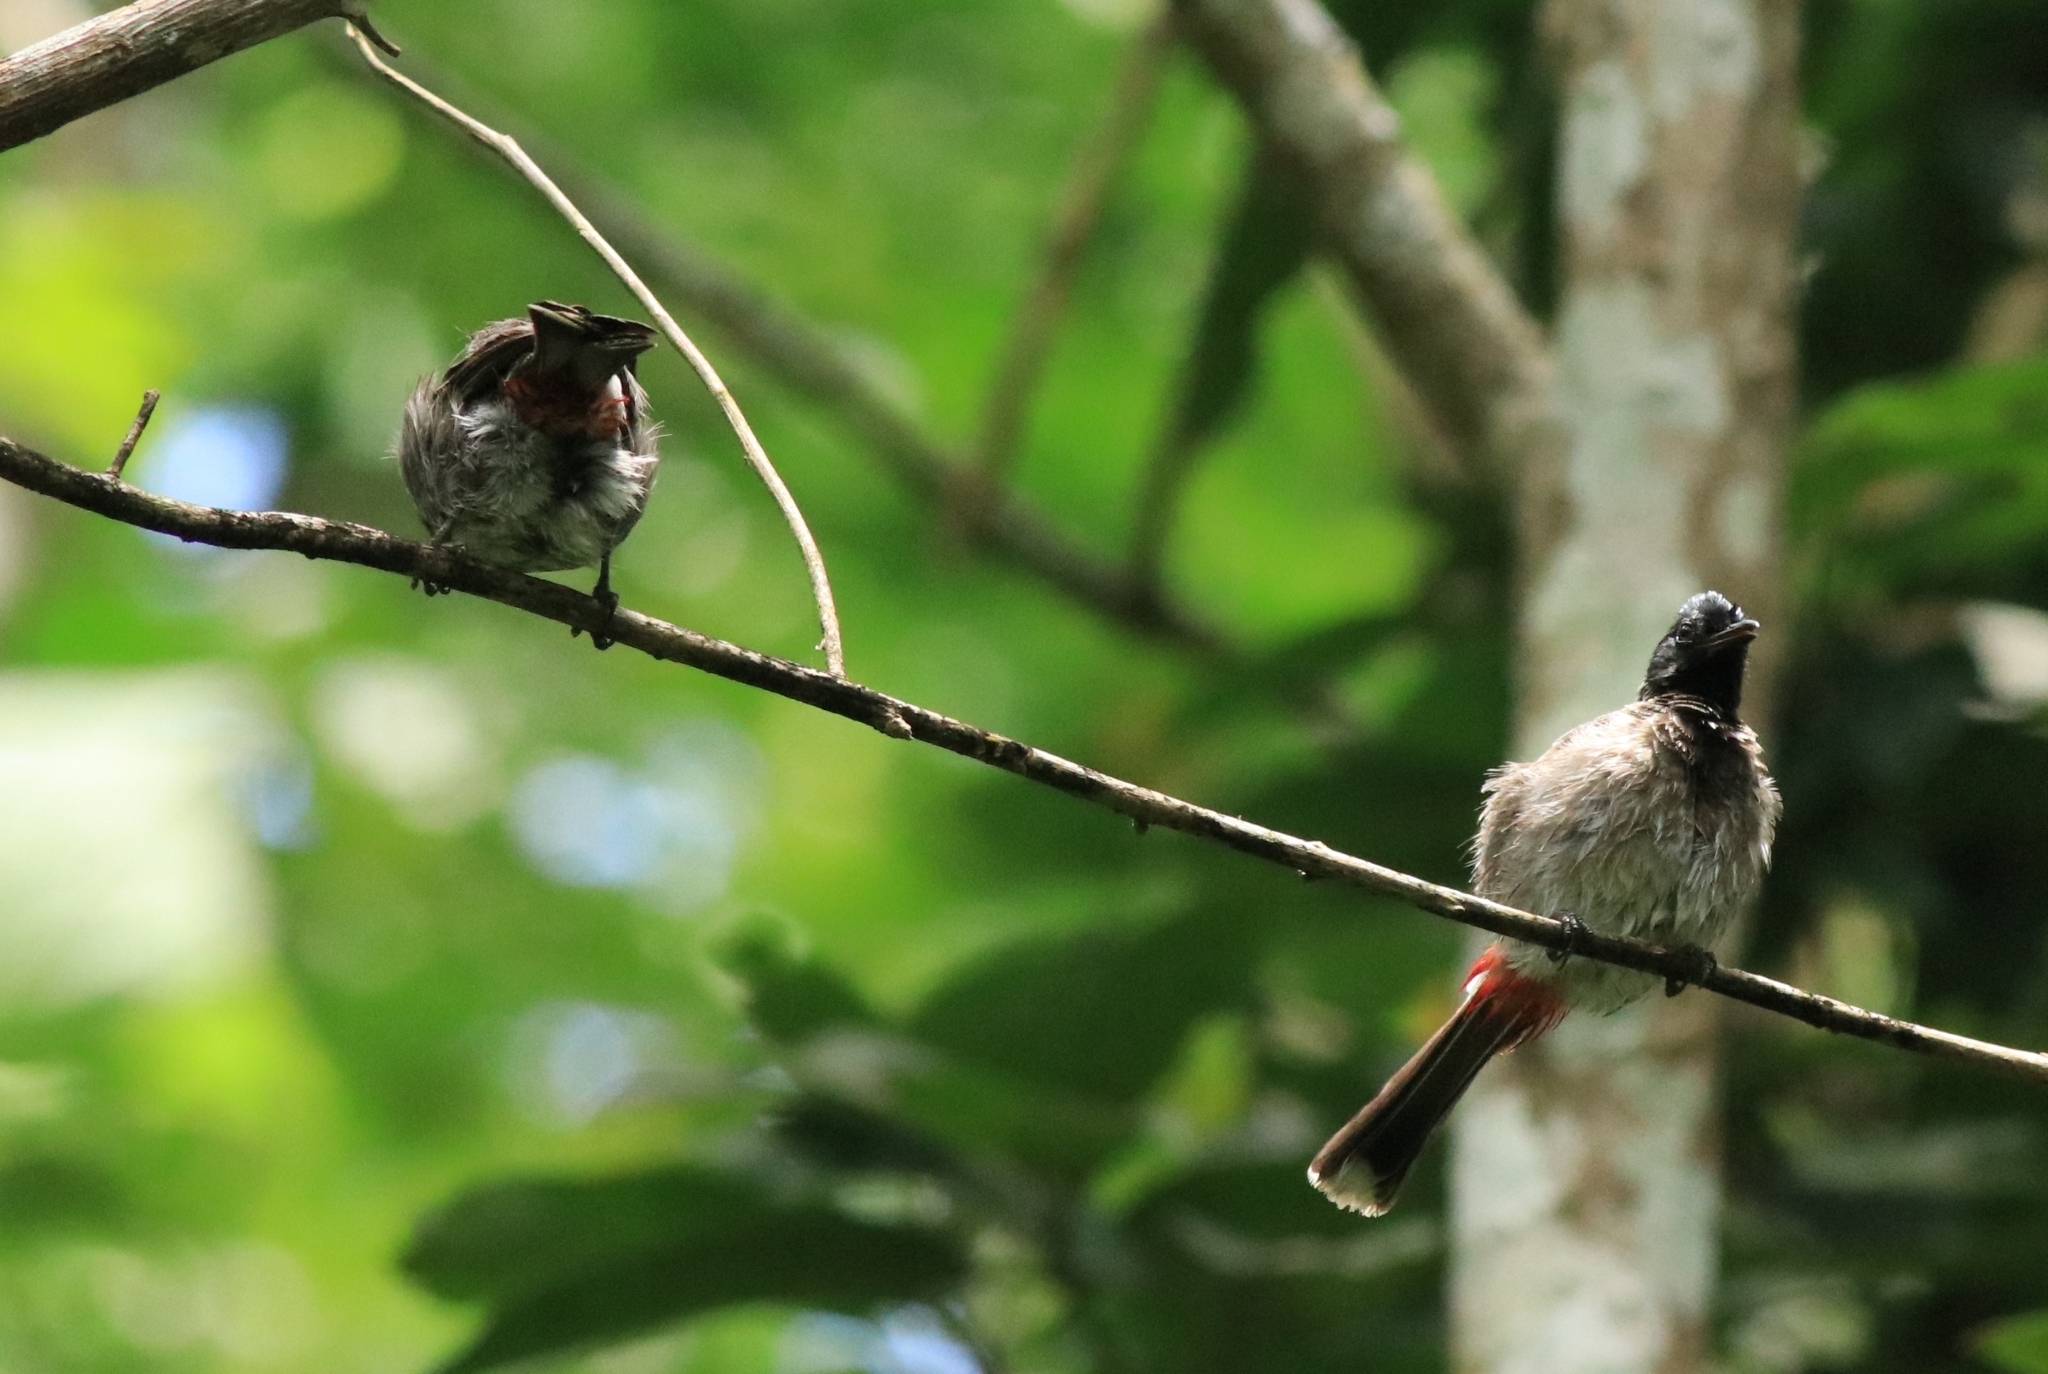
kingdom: Animalia
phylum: Chordata
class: Aves
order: Passeriformes
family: Pycnonotidae
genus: Pycnonotus
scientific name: Pycnonotus cafer
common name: Red-vented bulbul
